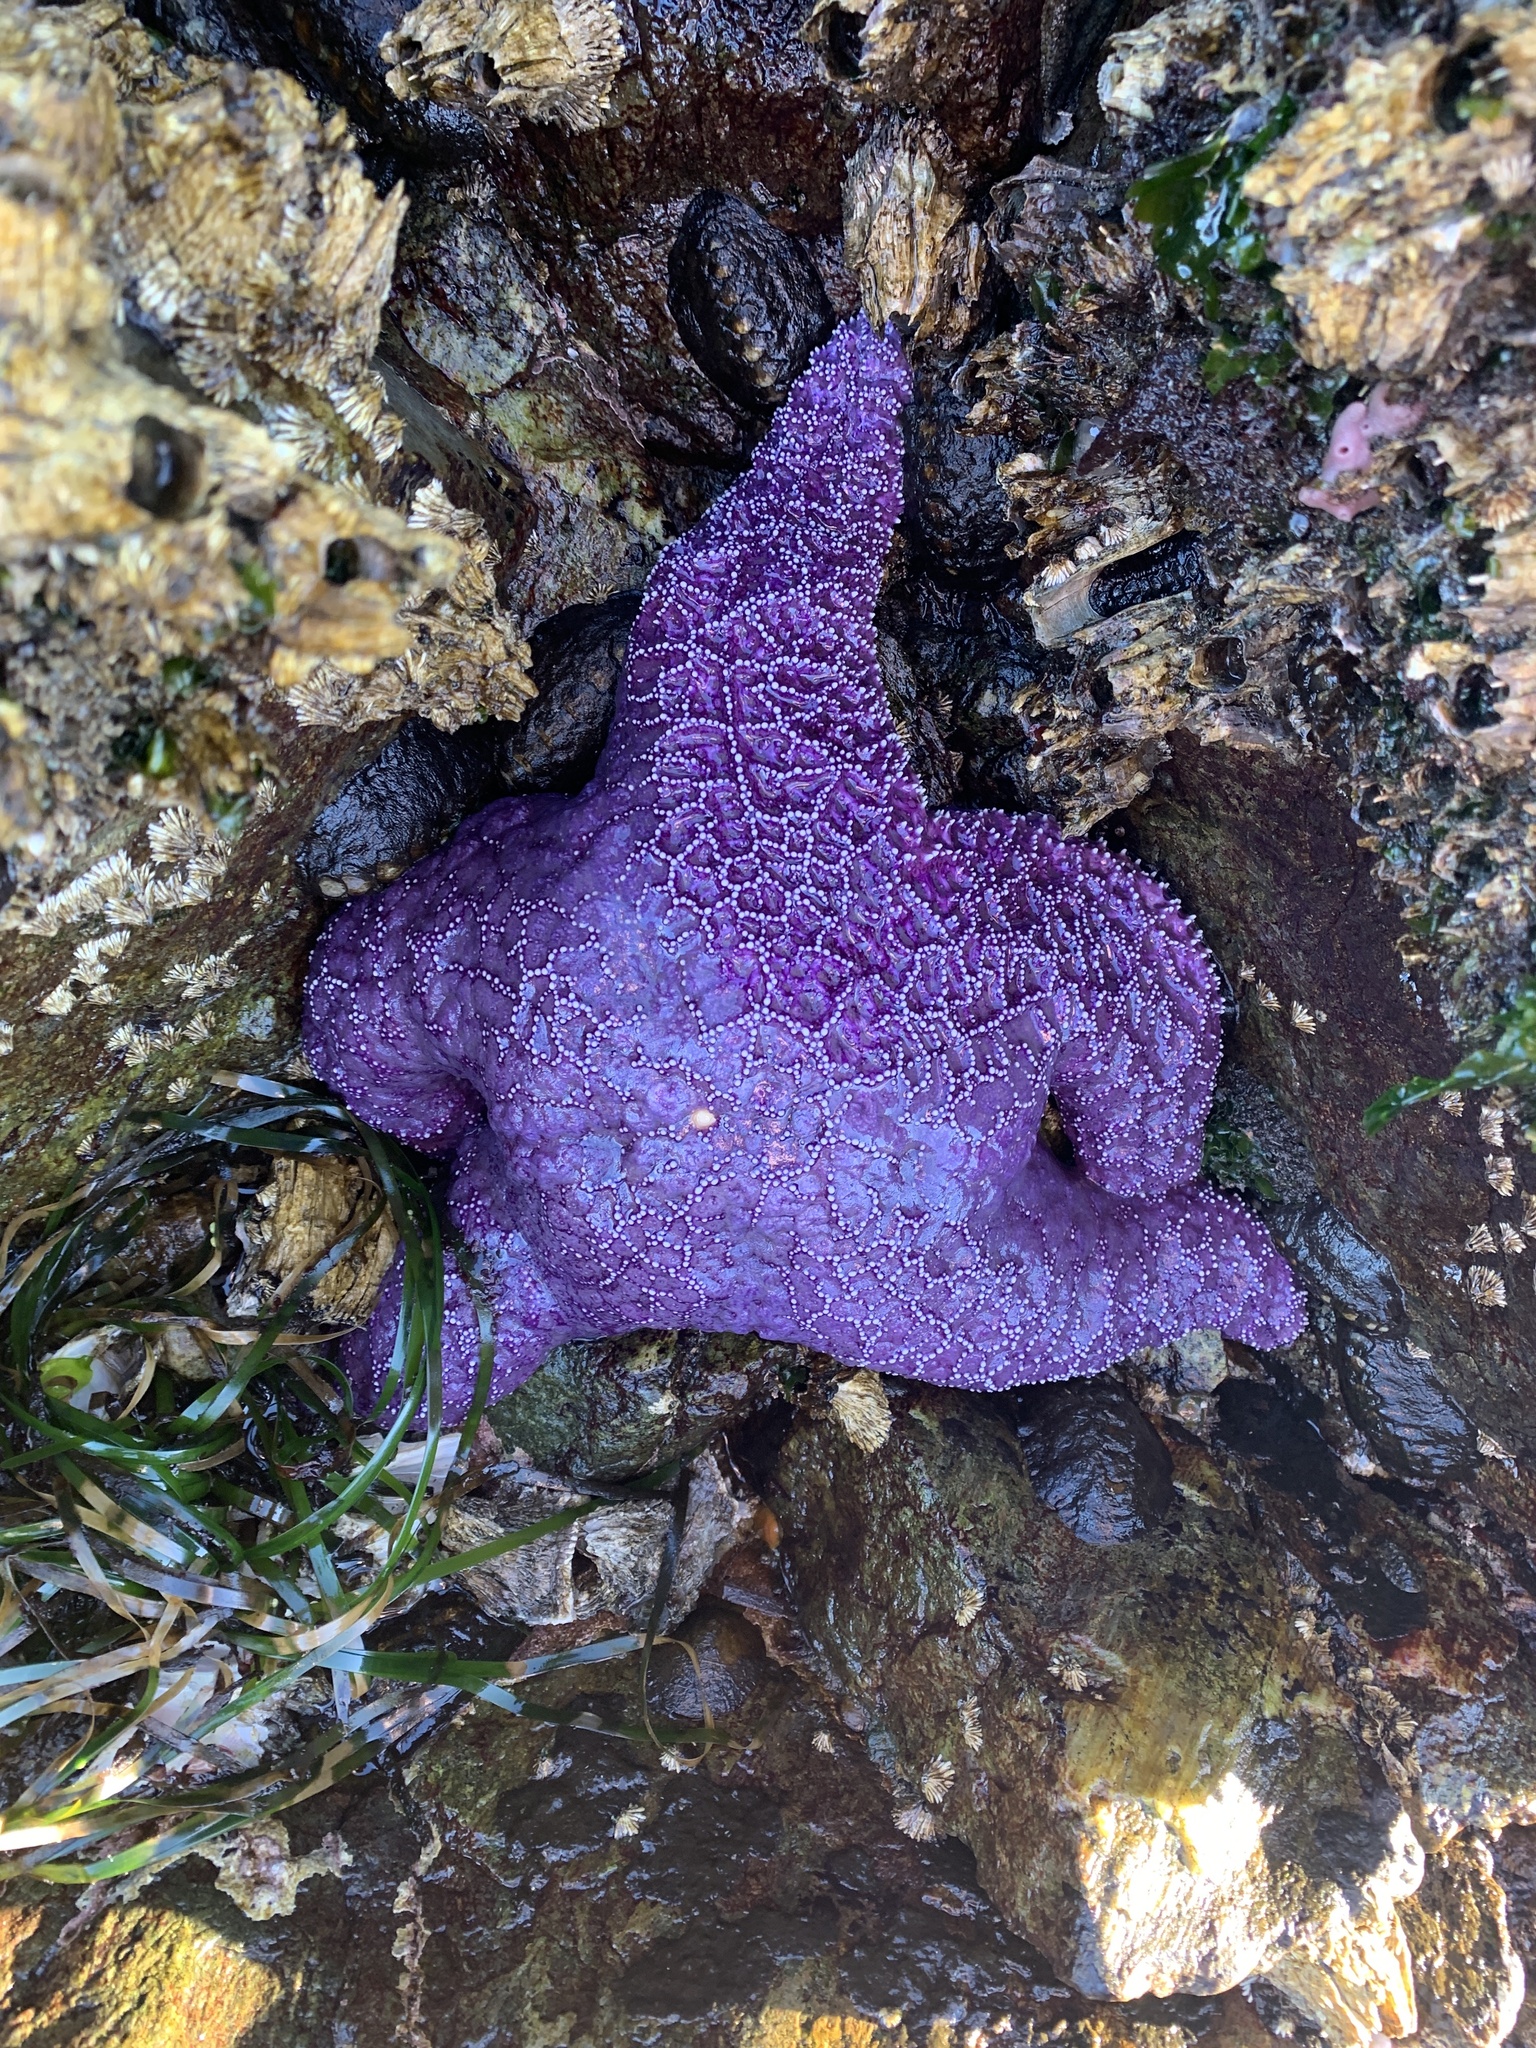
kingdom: Animalia
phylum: Echinodermata
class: Asteroidea
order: Forcipulatida
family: Asteriidae
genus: Pisaster
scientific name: Pisaster ochraceus
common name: Ochre stars
